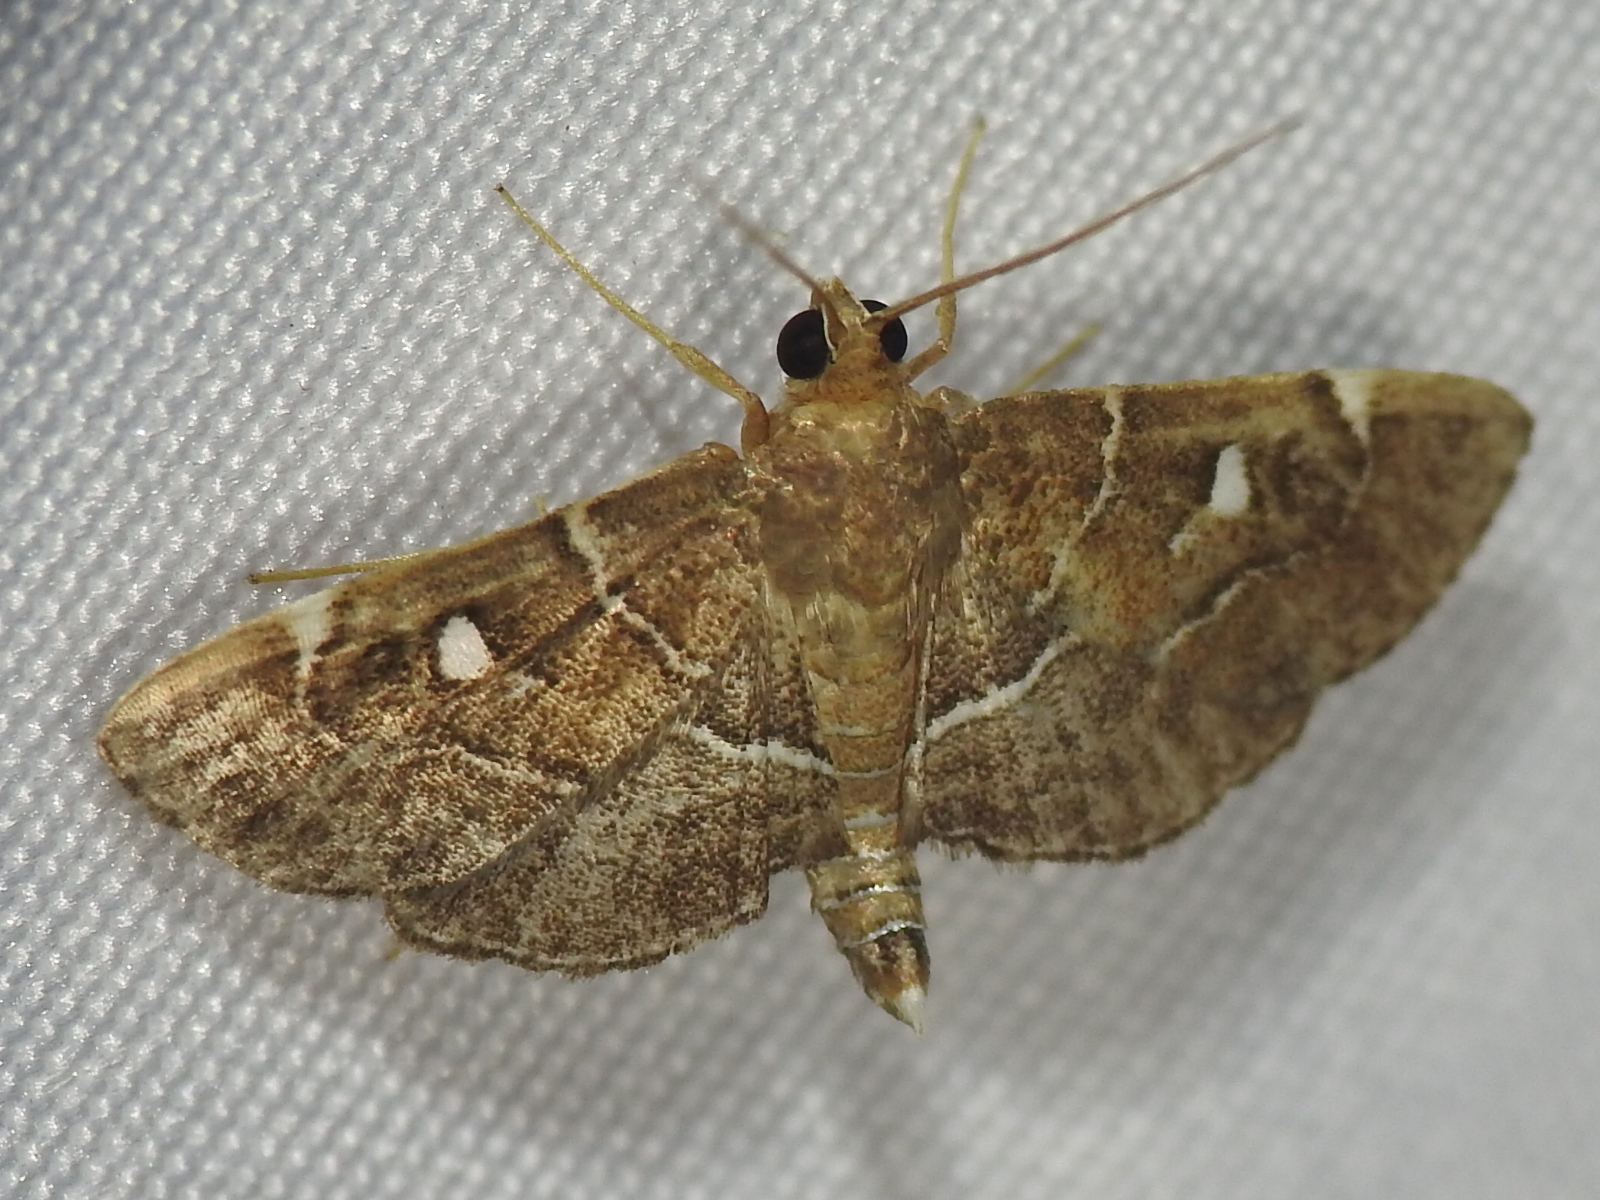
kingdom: Animalia
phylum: Arthropoda
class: Insecta
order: Lepidoptera
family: Crambidae
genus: Lamprosema
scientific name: Lamprosema victoriae
